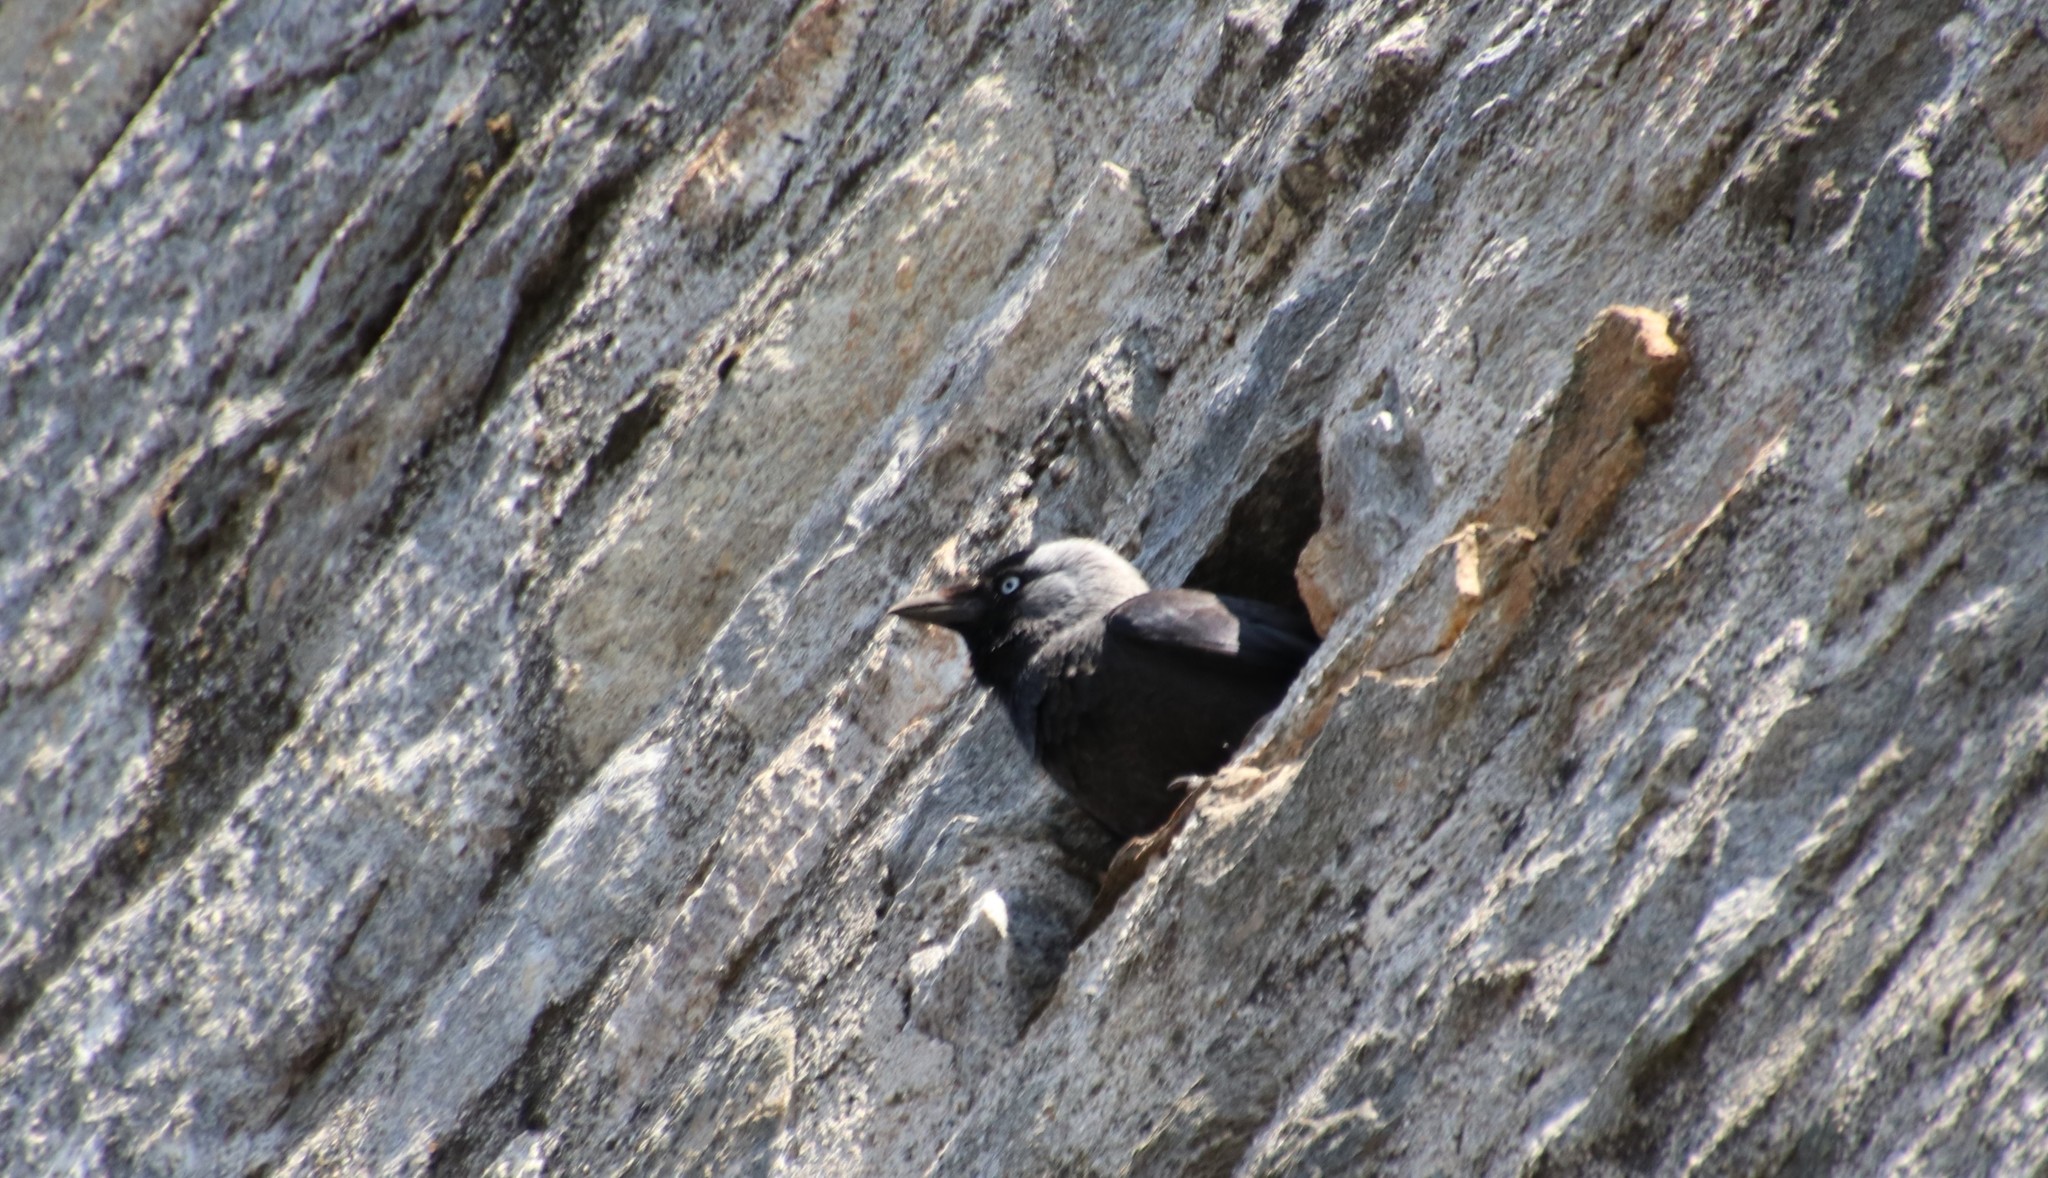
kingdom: Animalia
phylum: Chordata
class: Aves
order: Passeriformes
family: Corvidae
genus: Coloeus
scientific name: Coloeus monedula
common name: Western jackdaw
